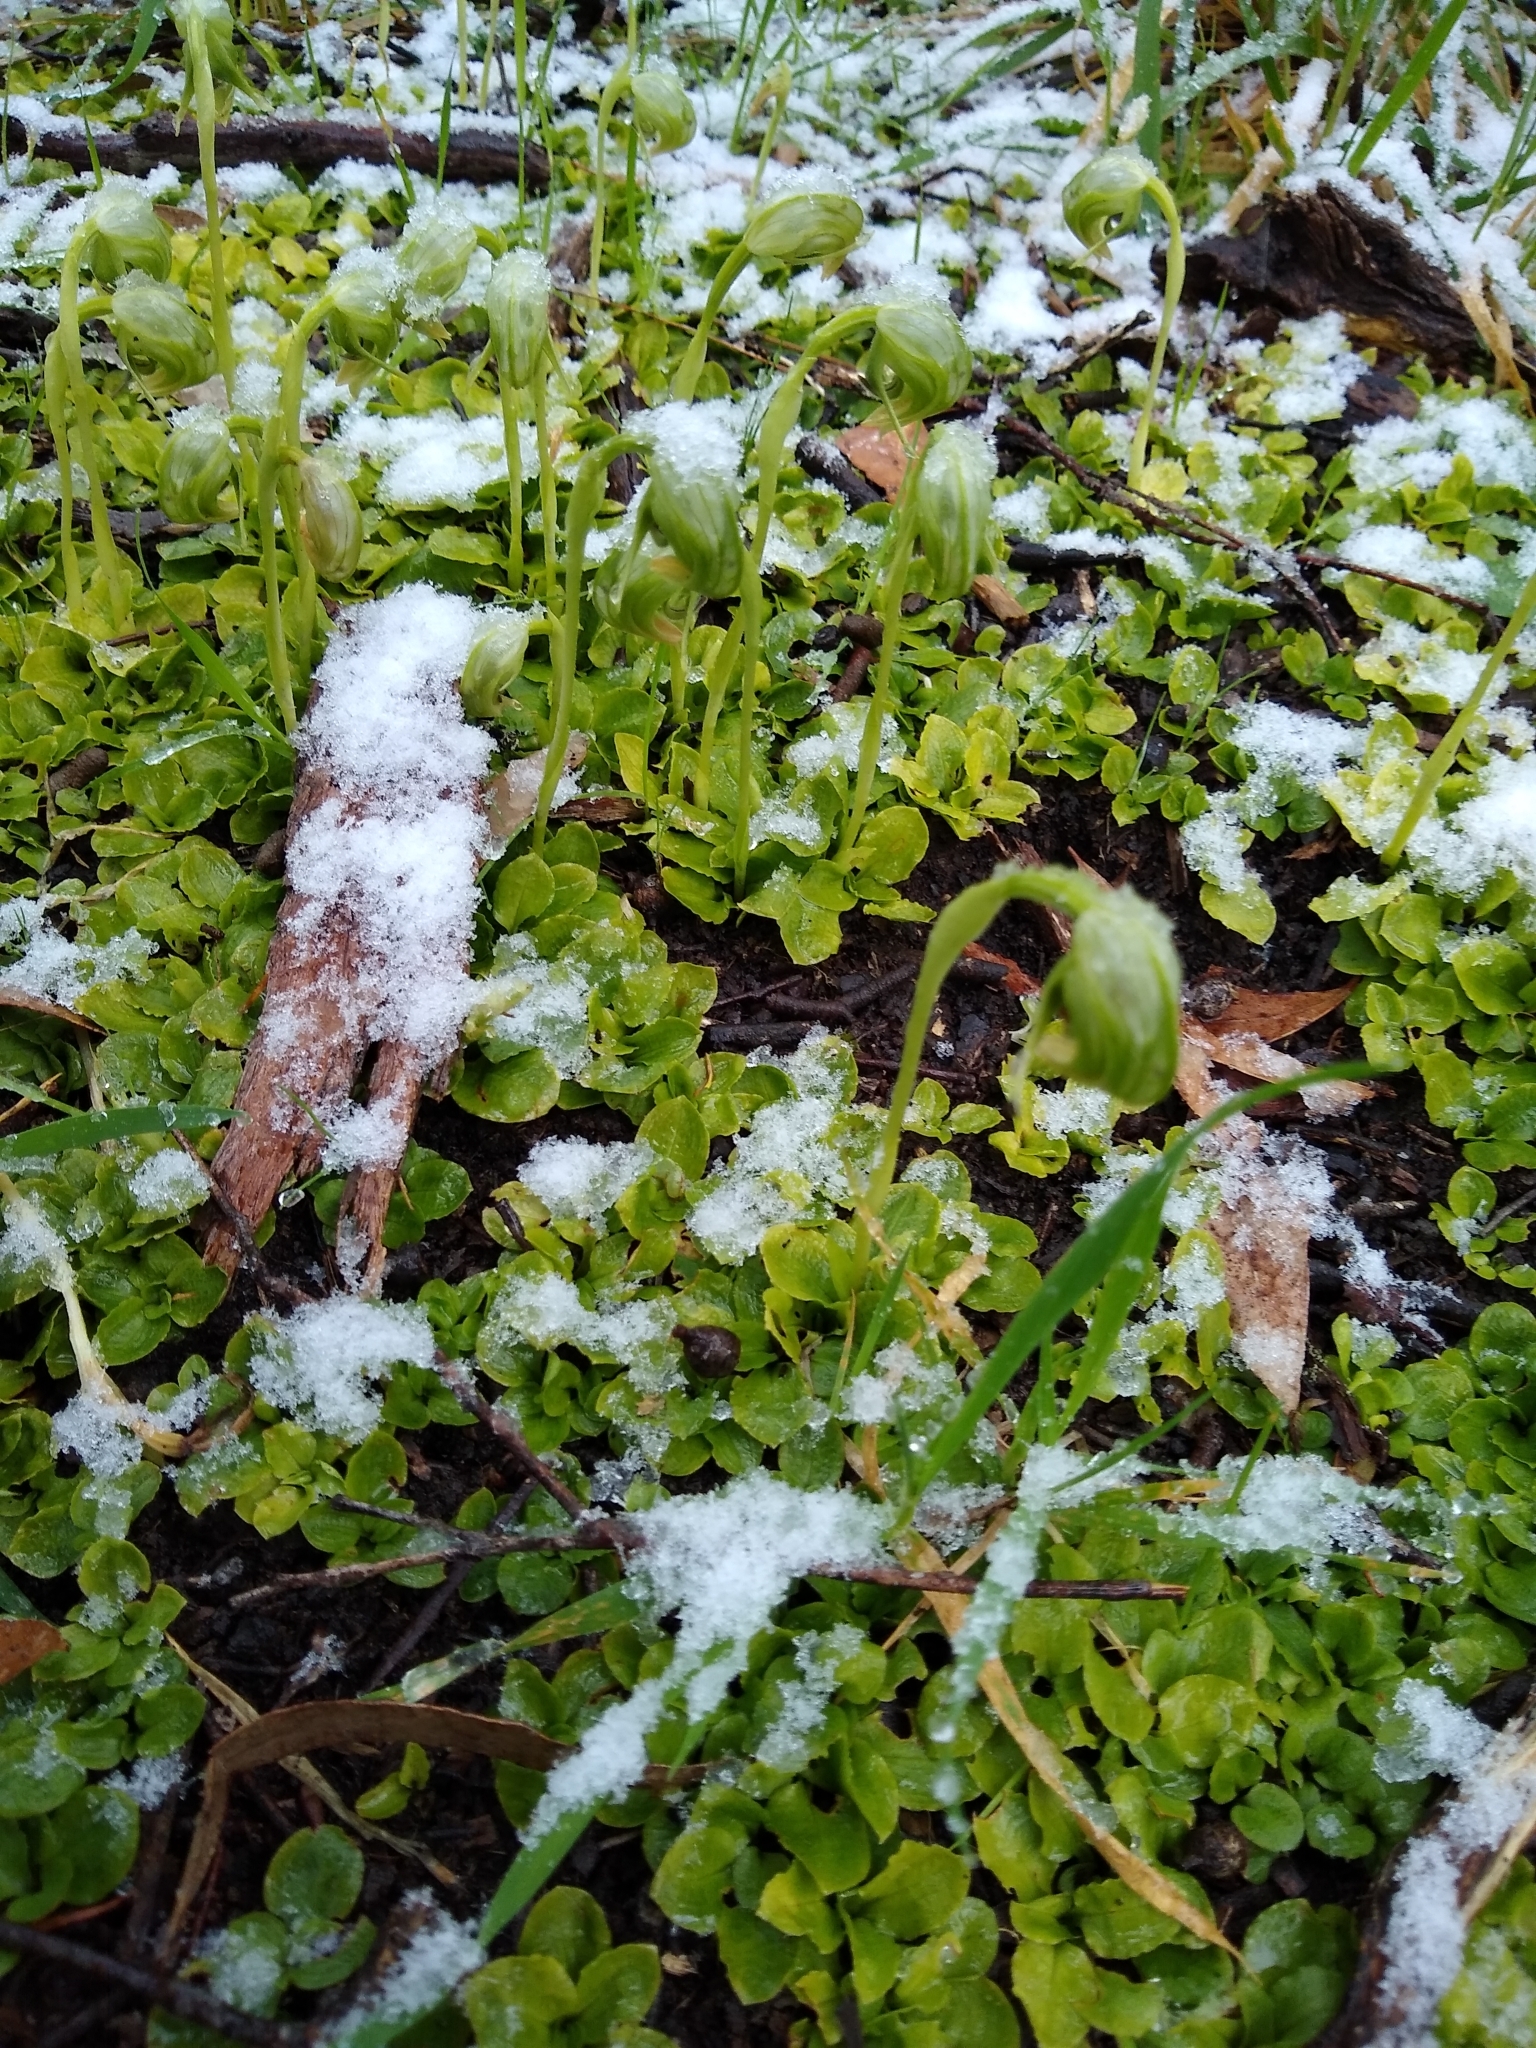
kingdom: Plantae
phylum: Tracheophyta
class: Liliopsida
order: Asparagales
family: Orchidaceae
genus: Pterostylis
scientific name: Pterostylis nutans
